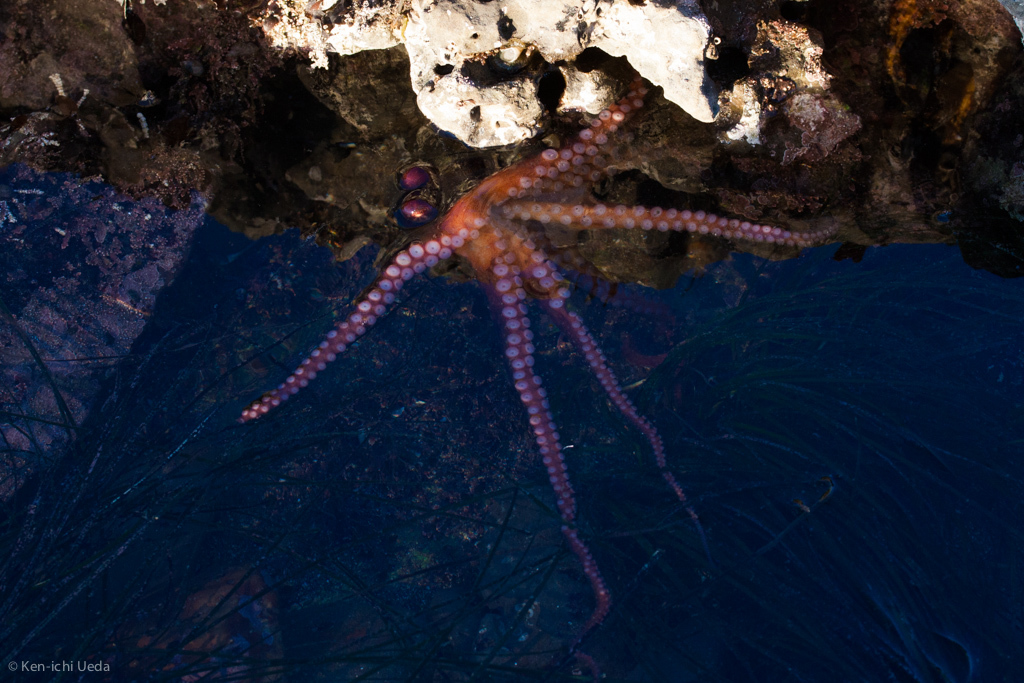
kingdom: Animalia
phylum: Mollusca
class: Cephalopoda
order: Octopoda
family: Octopodidae
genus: Octopus
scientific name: Octopus rubescens
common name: East pacific red octopus
